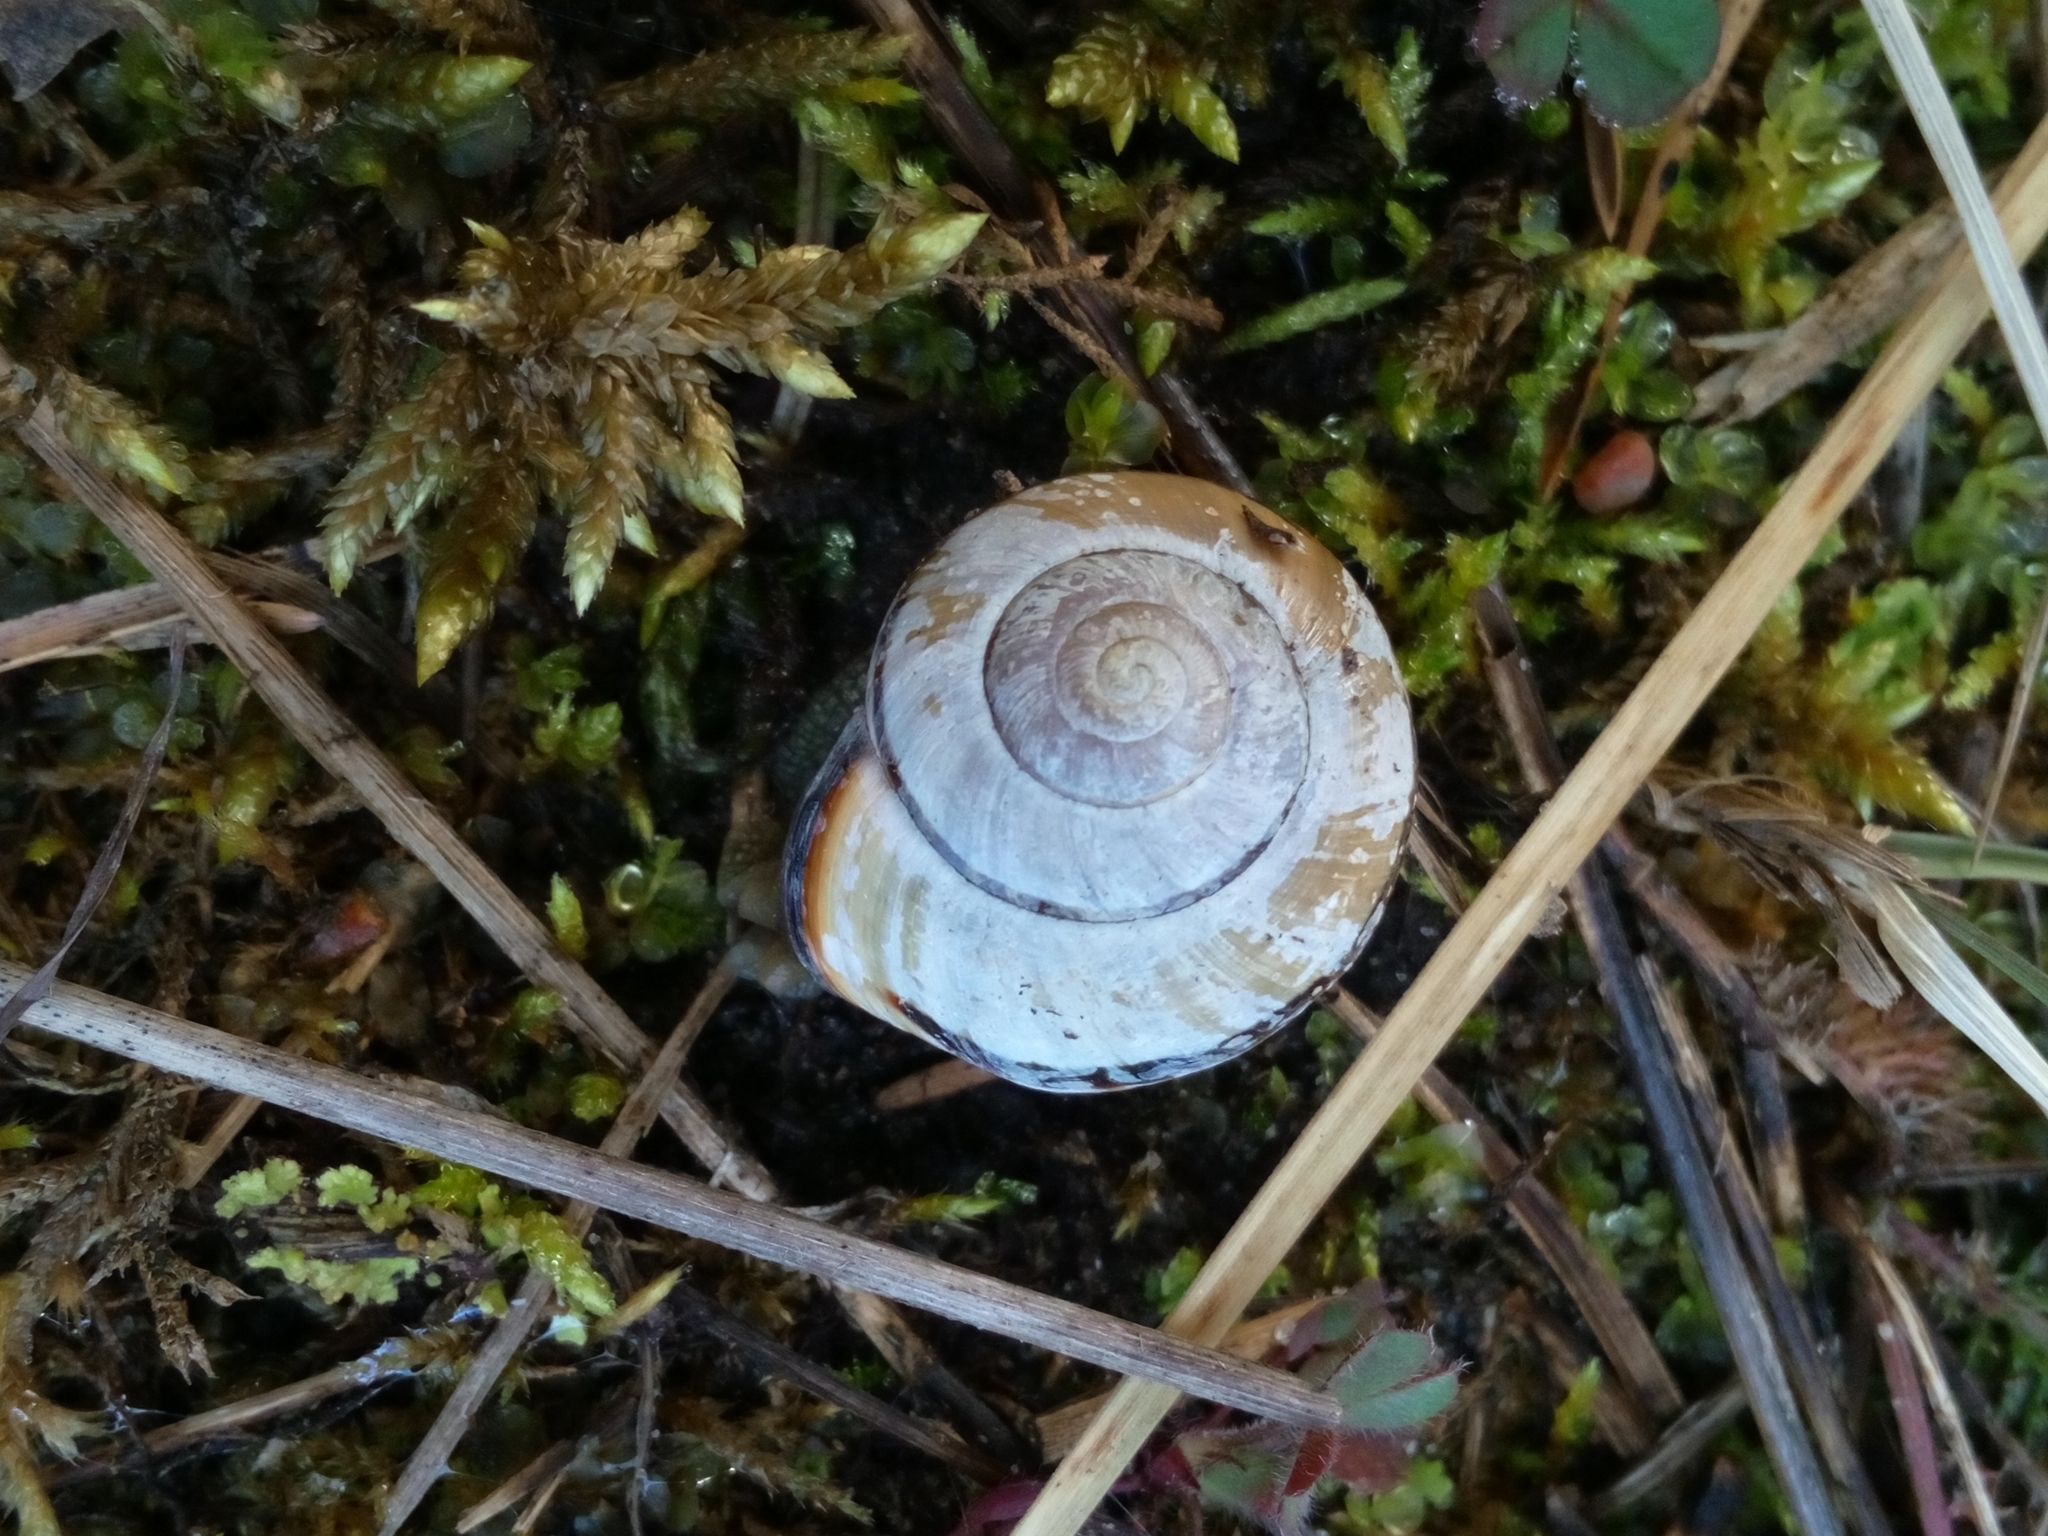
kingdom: Animalia
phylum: Mollusca
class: Gastropoda
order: Stylommatophora
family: Helicidae
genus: Cepaea
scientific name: Cepaea nemoralis
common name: Grovesnail
